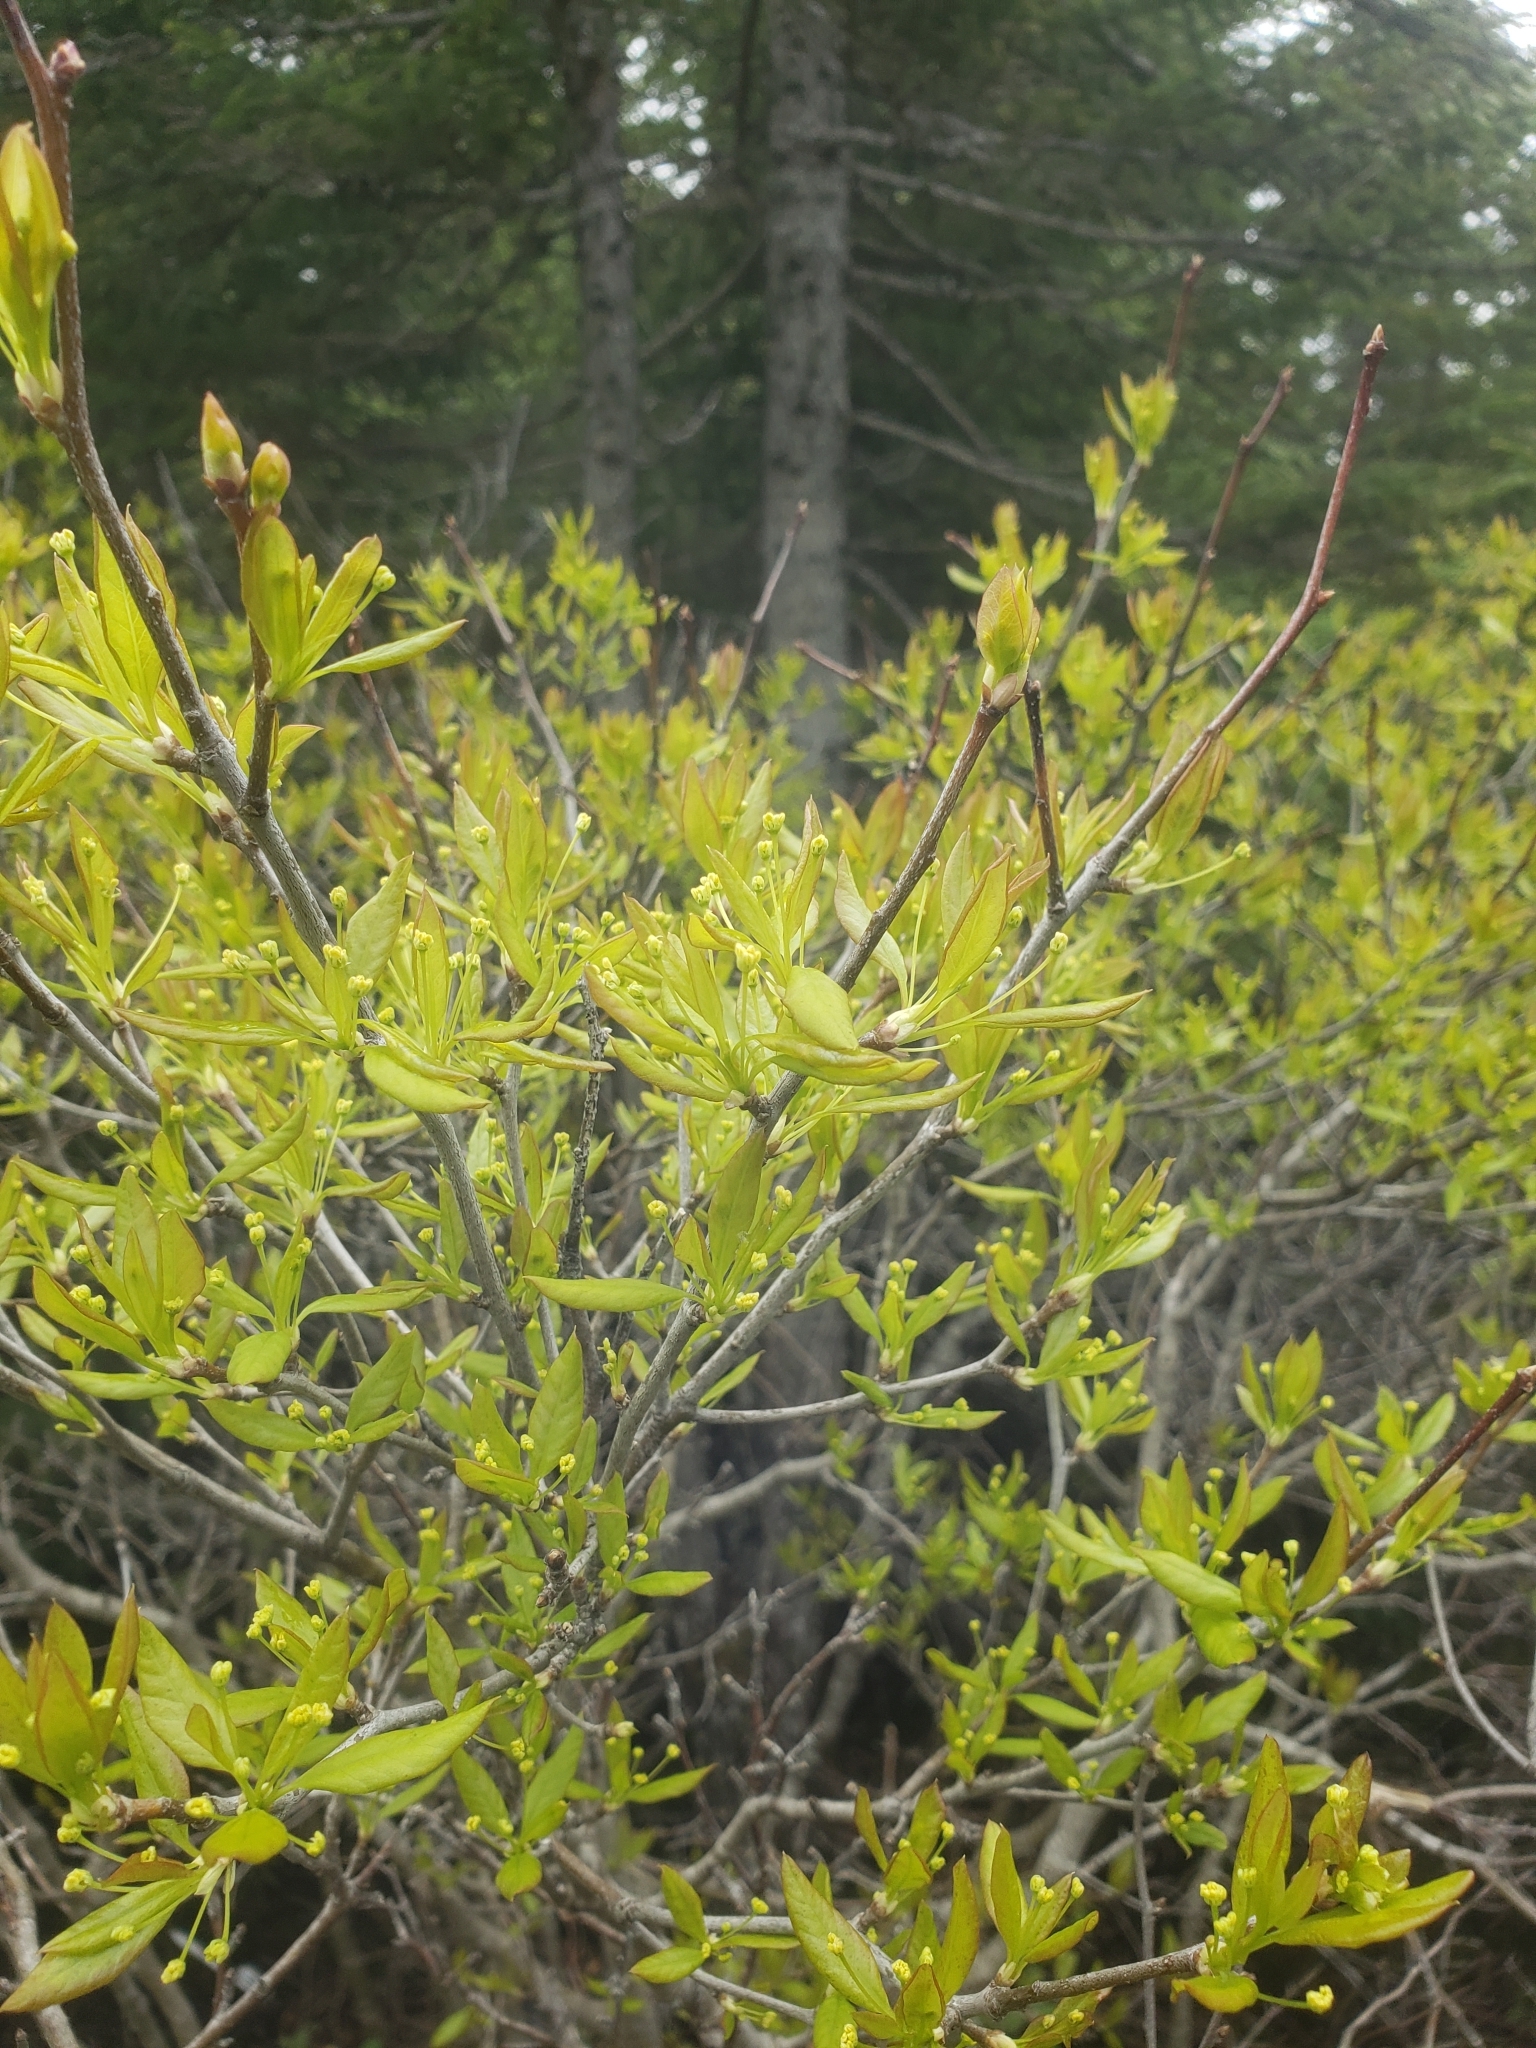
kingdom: Plantae
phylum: Tracheophyta
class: Magnoliopsida
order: Aquifoliales
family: Aquifoliaceae
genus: Ilex
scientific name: Ilex mucronata
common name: Catberry
